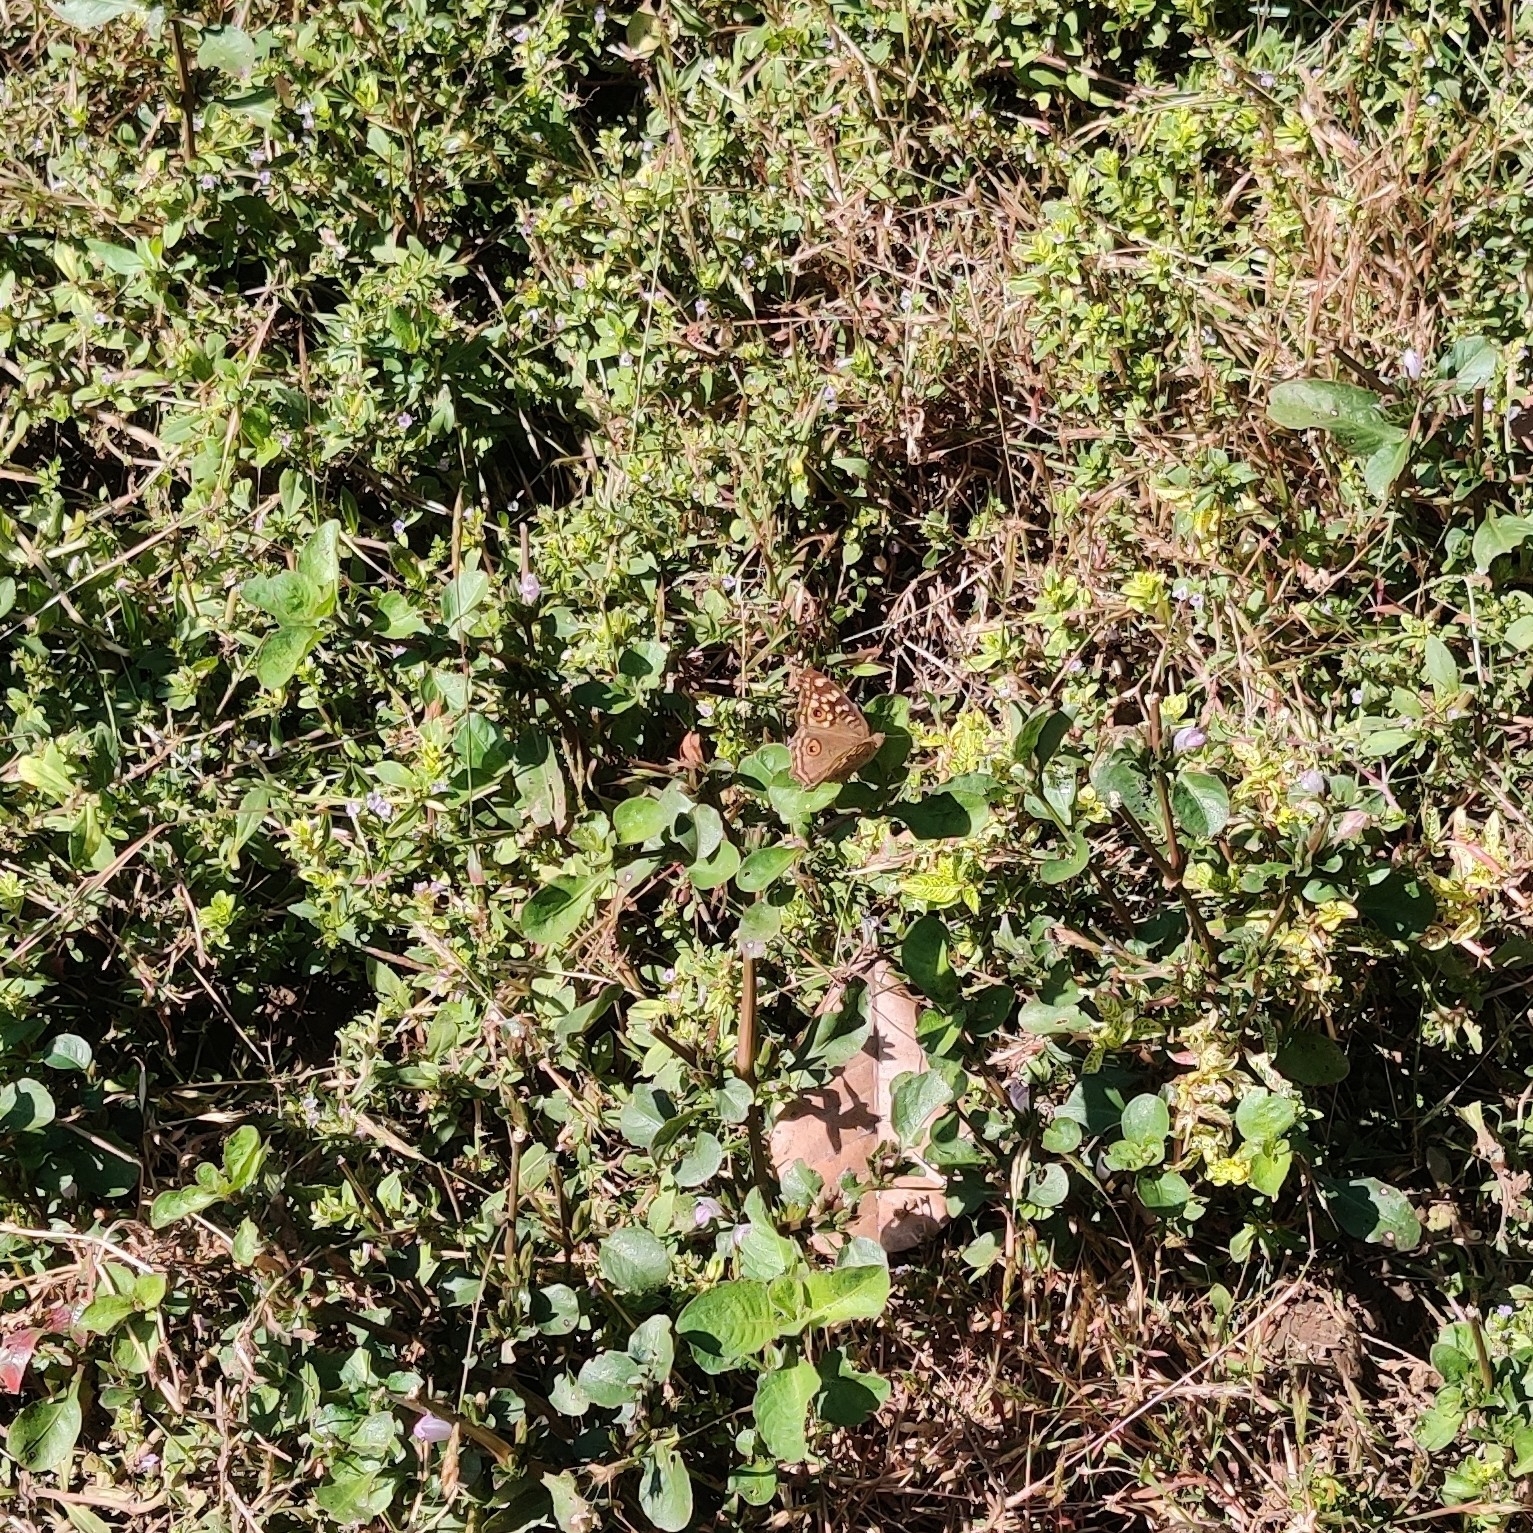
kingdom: Animalia
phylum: Arthropoda
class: Insecta
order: Lepidoptera
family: Nymphalidae
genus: Junonia
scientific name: Junonia lemonias
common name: Lemon pansy
